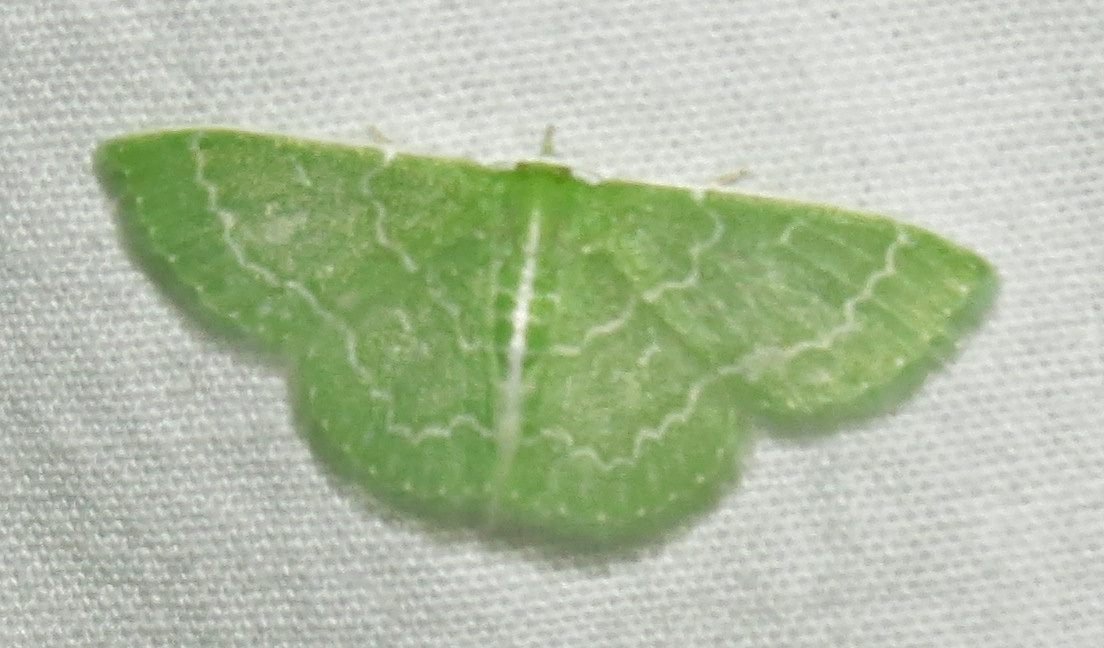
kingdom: Animalia
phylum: Arthropoda
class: Insecta
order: Lepidoptera
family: Geometridae
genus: Synchlora
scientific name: Synchlora aerata
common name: Wavy-lined emerald
